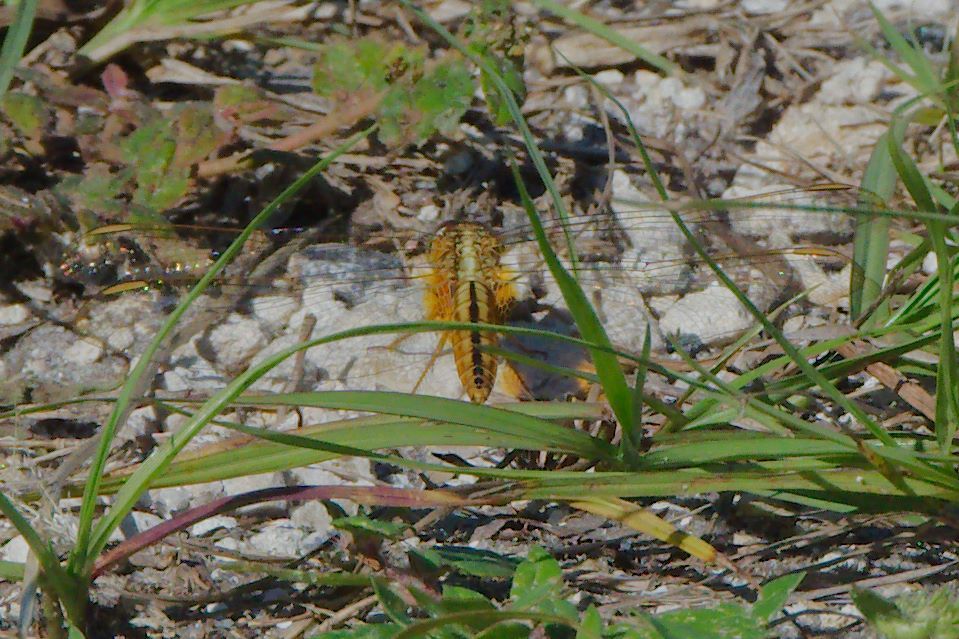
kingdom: Animalia
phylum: Arthropoda
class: Insecta
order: Odonata
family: Libellulidae
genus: Crocothemis
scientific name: Crocothemis servilia
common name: Scarlet skimmer
